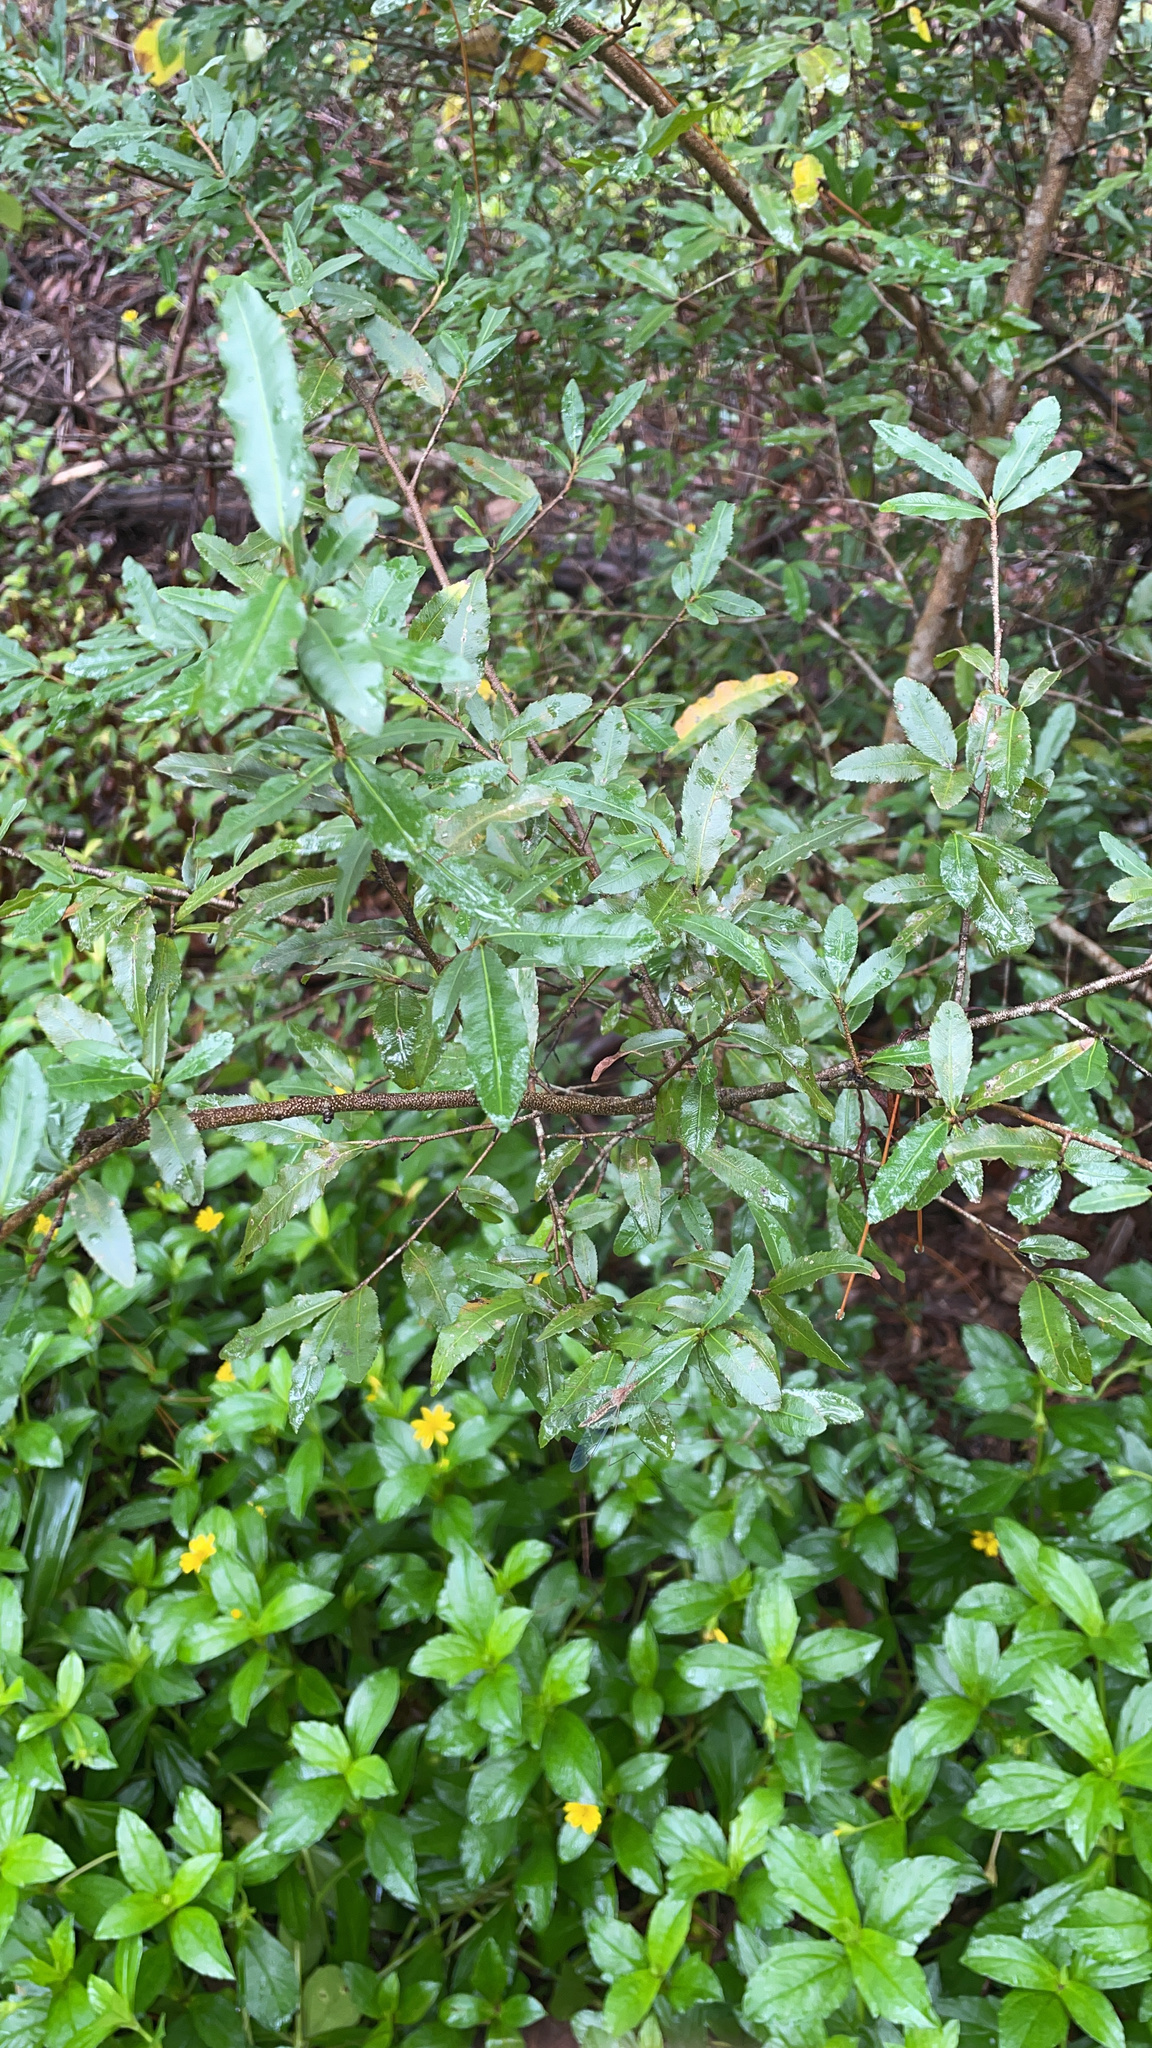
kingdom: Plantae
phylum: Tracheophyta
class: Magnoliopsida
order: Malpighiales
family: Ochnaceae
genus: Ochna
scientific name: Ochna serrulata
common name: Mickey mouse plant
